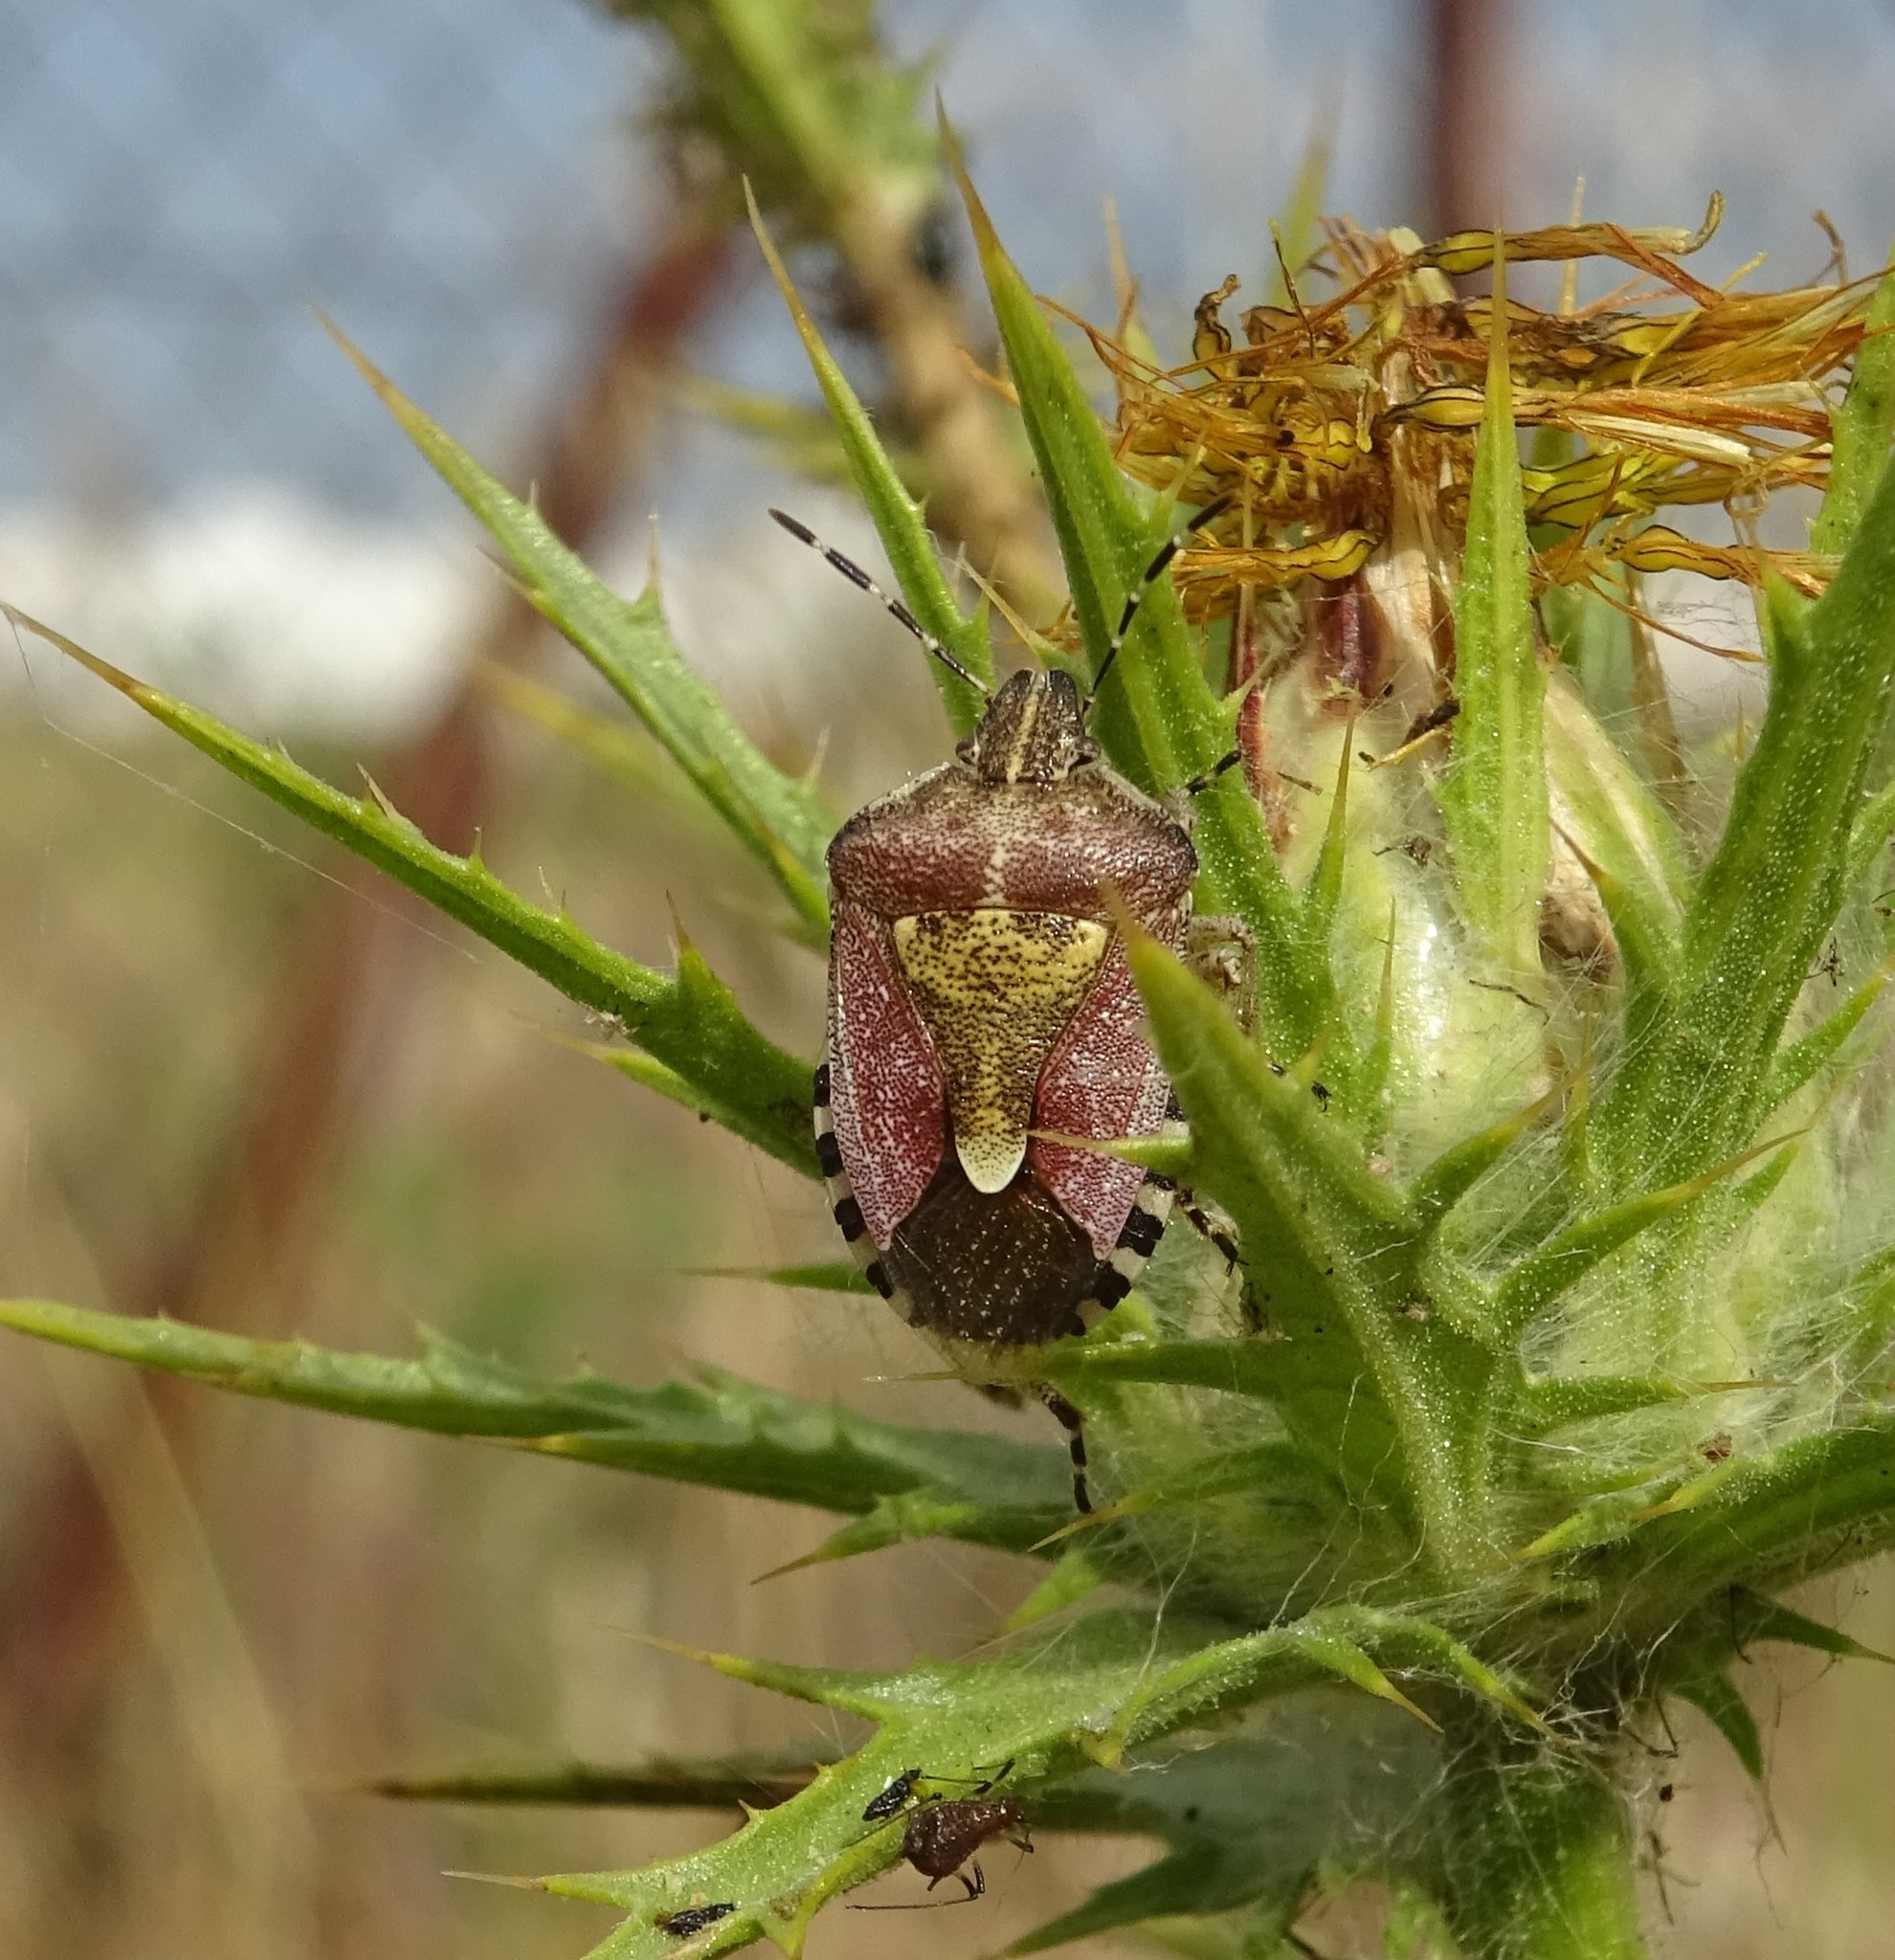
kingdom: Animalia
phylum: Arthropoda
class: Insecta
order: Hemiptera
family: Pentatomidae
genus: Dolycoris
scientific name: Dolycoris baccarum
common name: Sloe bug
